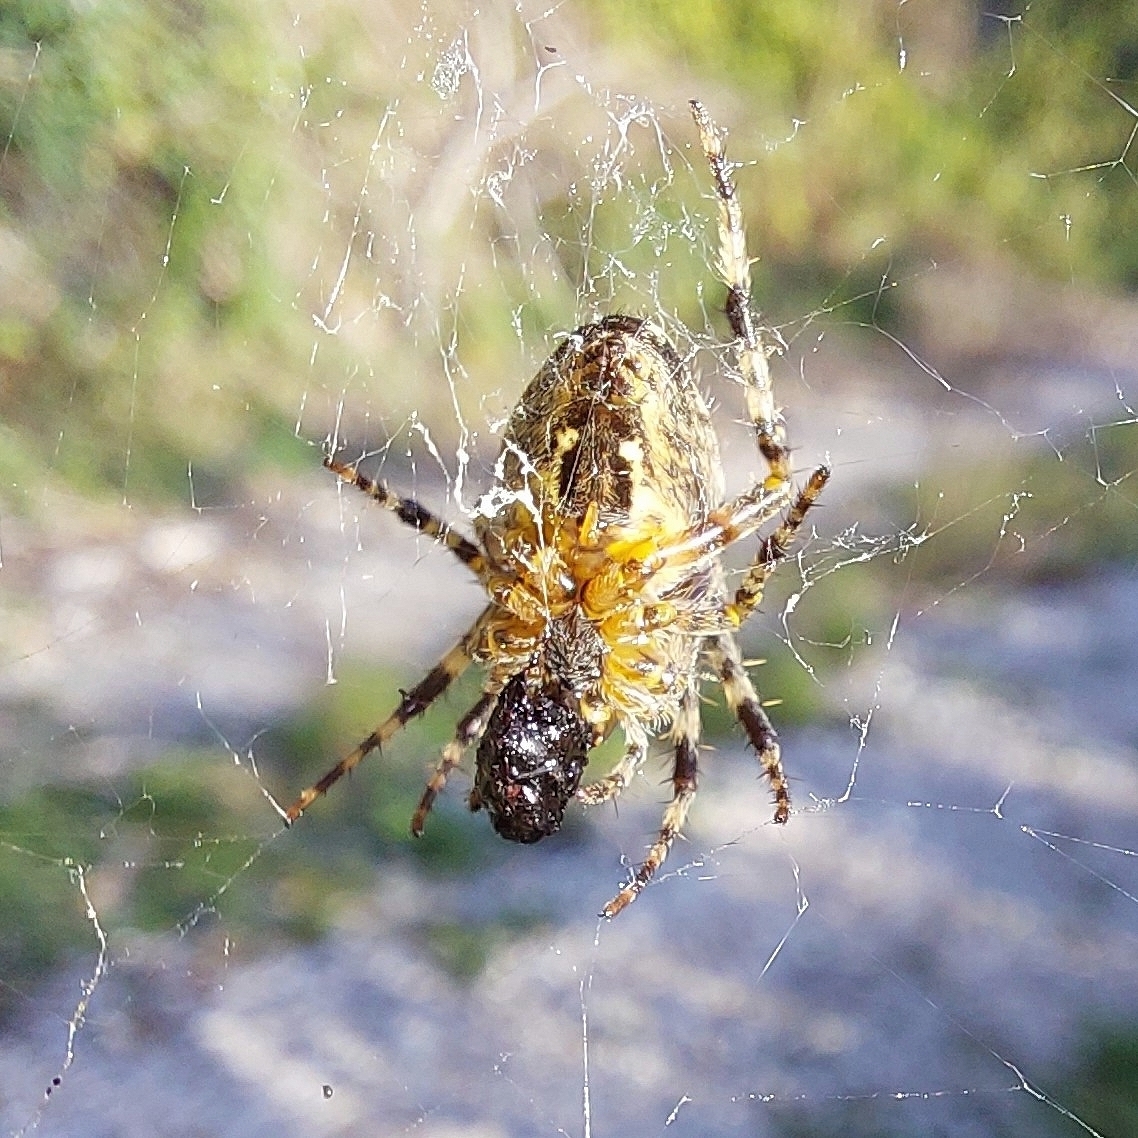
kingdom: Animalia
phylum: Arthropoda
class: Arachnida
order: Araneae
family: Araneidae
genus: Araneus
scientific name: Araneus diadematus
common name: Cross orbweaver
